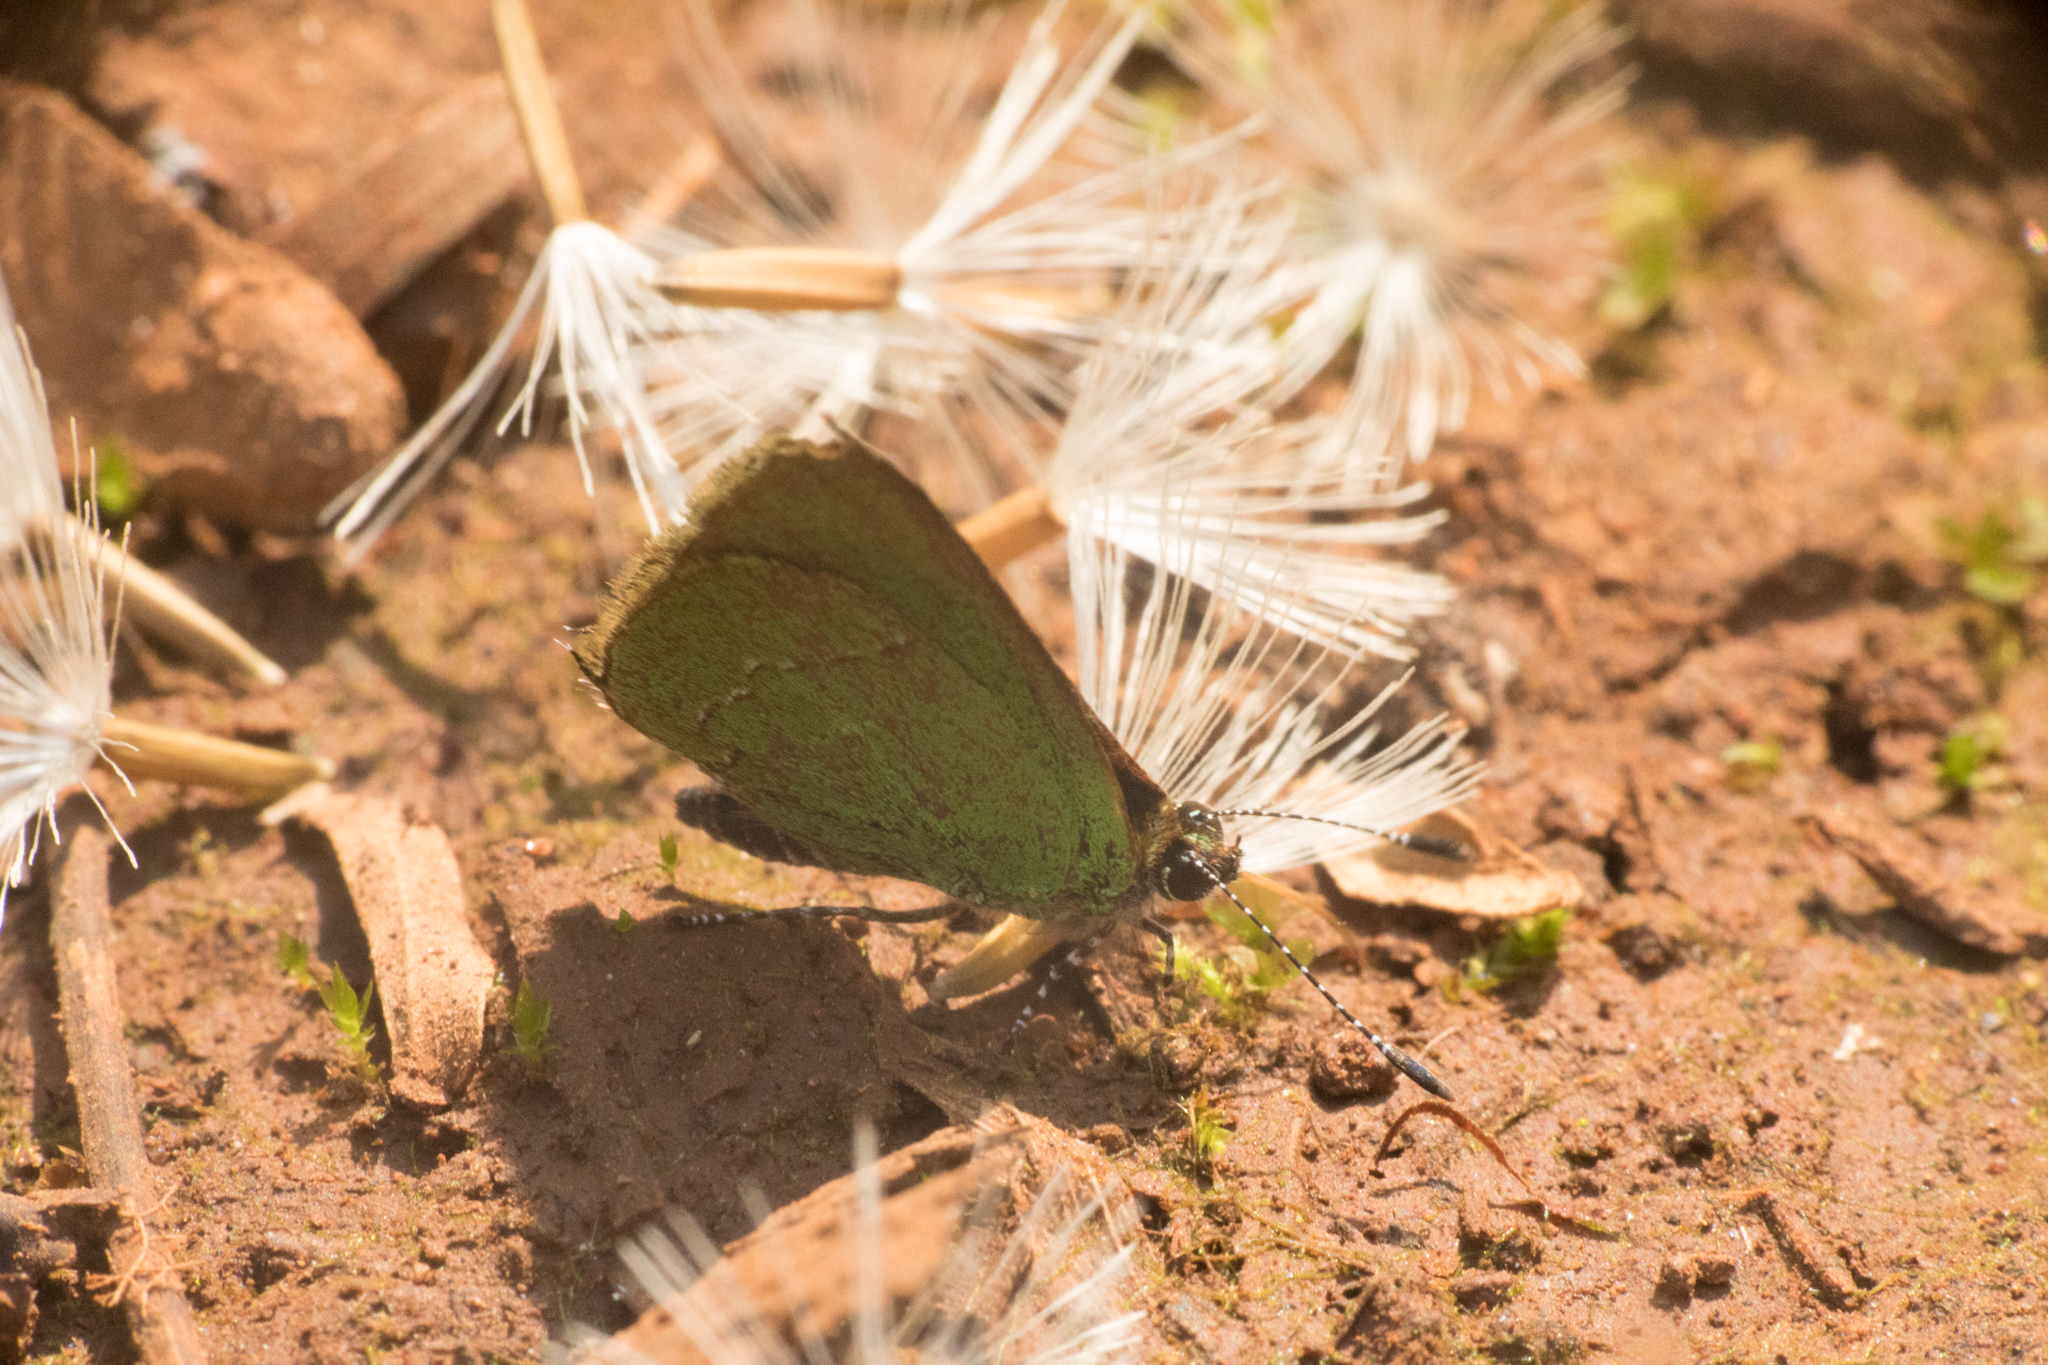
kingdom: Animalia
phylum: Arthropoda
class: Insecta
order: Lepidoptera
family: Lycaenidae
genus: Thecla
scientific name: Thecla badeta
